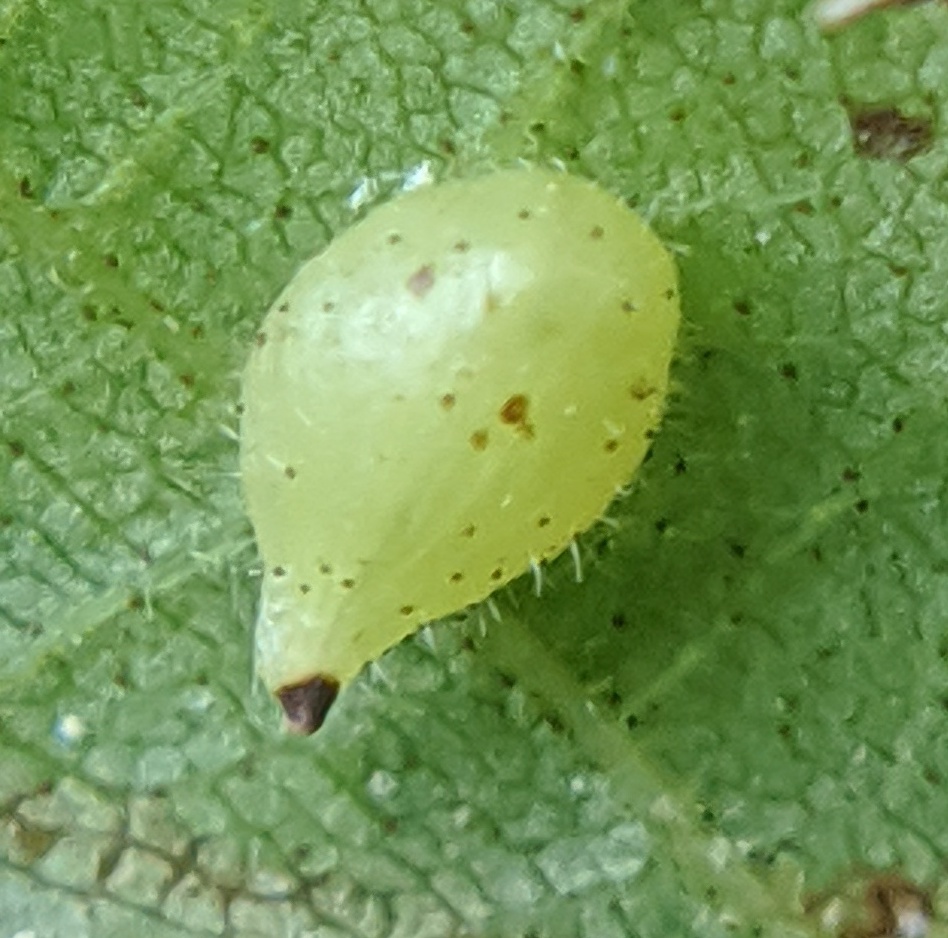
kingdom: Animalia
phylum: Arthropoda
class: Insecta
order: Diptera
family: Cecidomyiidae
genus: Caryomyia
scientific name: Caryomyia eumaris
